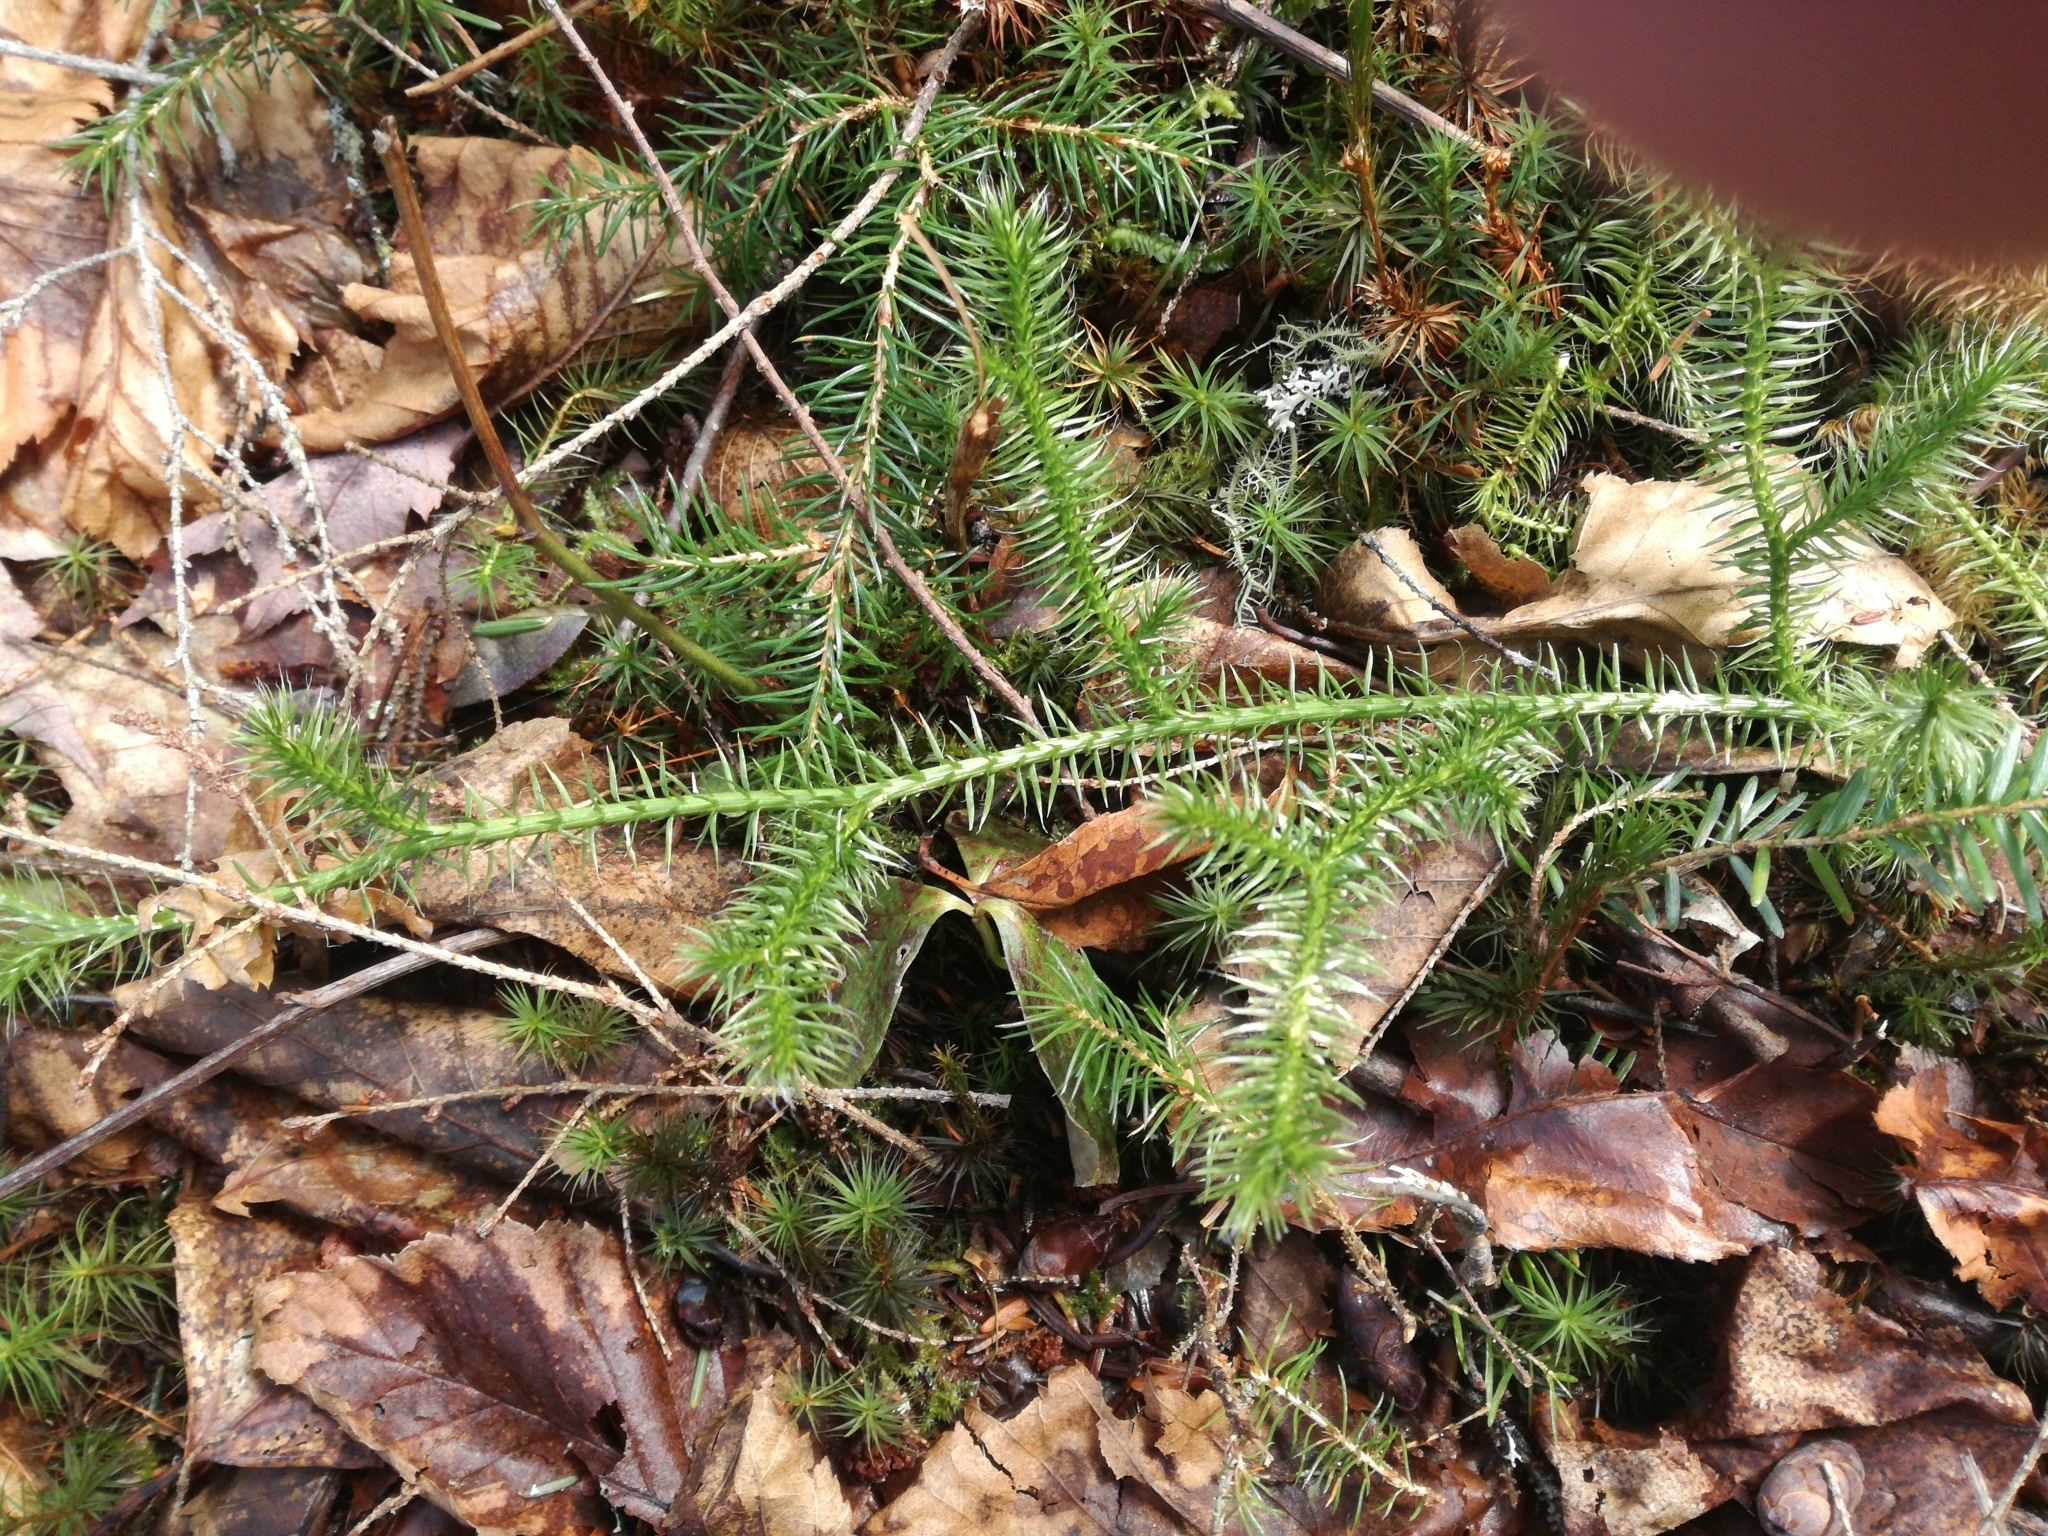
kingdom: Plantae
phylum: Tracheophyta
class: Lycopodiopsida
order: Lycopodiales
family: Lycopodiaceae
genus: Lycopodium
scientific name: Lycopodium clavatum
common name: Stag's-horn clubmoss
